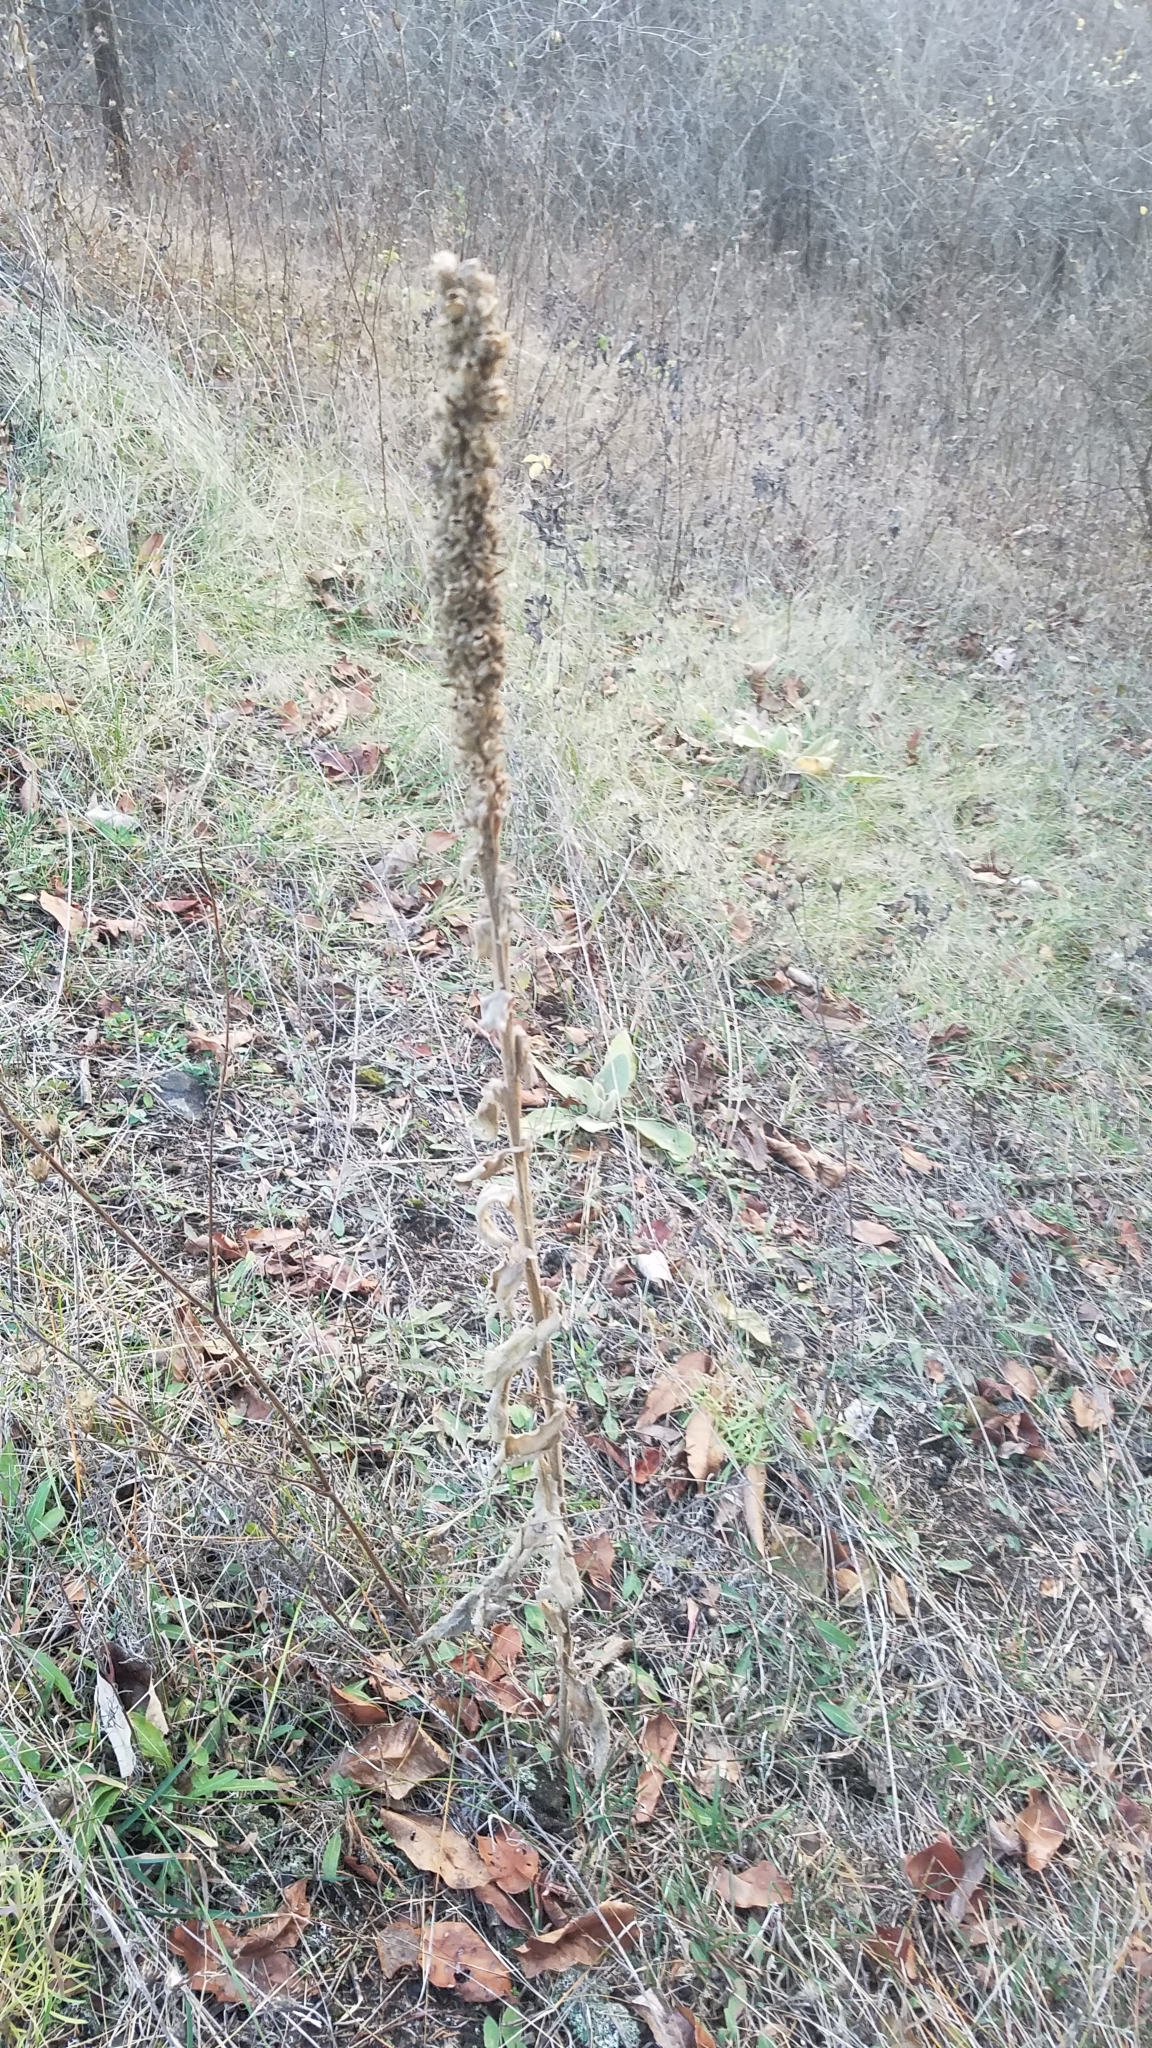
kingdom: Plantae
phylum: Tracheophyta
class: Magnoliopsida
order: Lamiales
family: Scrophulariaceae
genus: Verbascum
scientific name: Verbascum thapsus
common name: Common mullein
